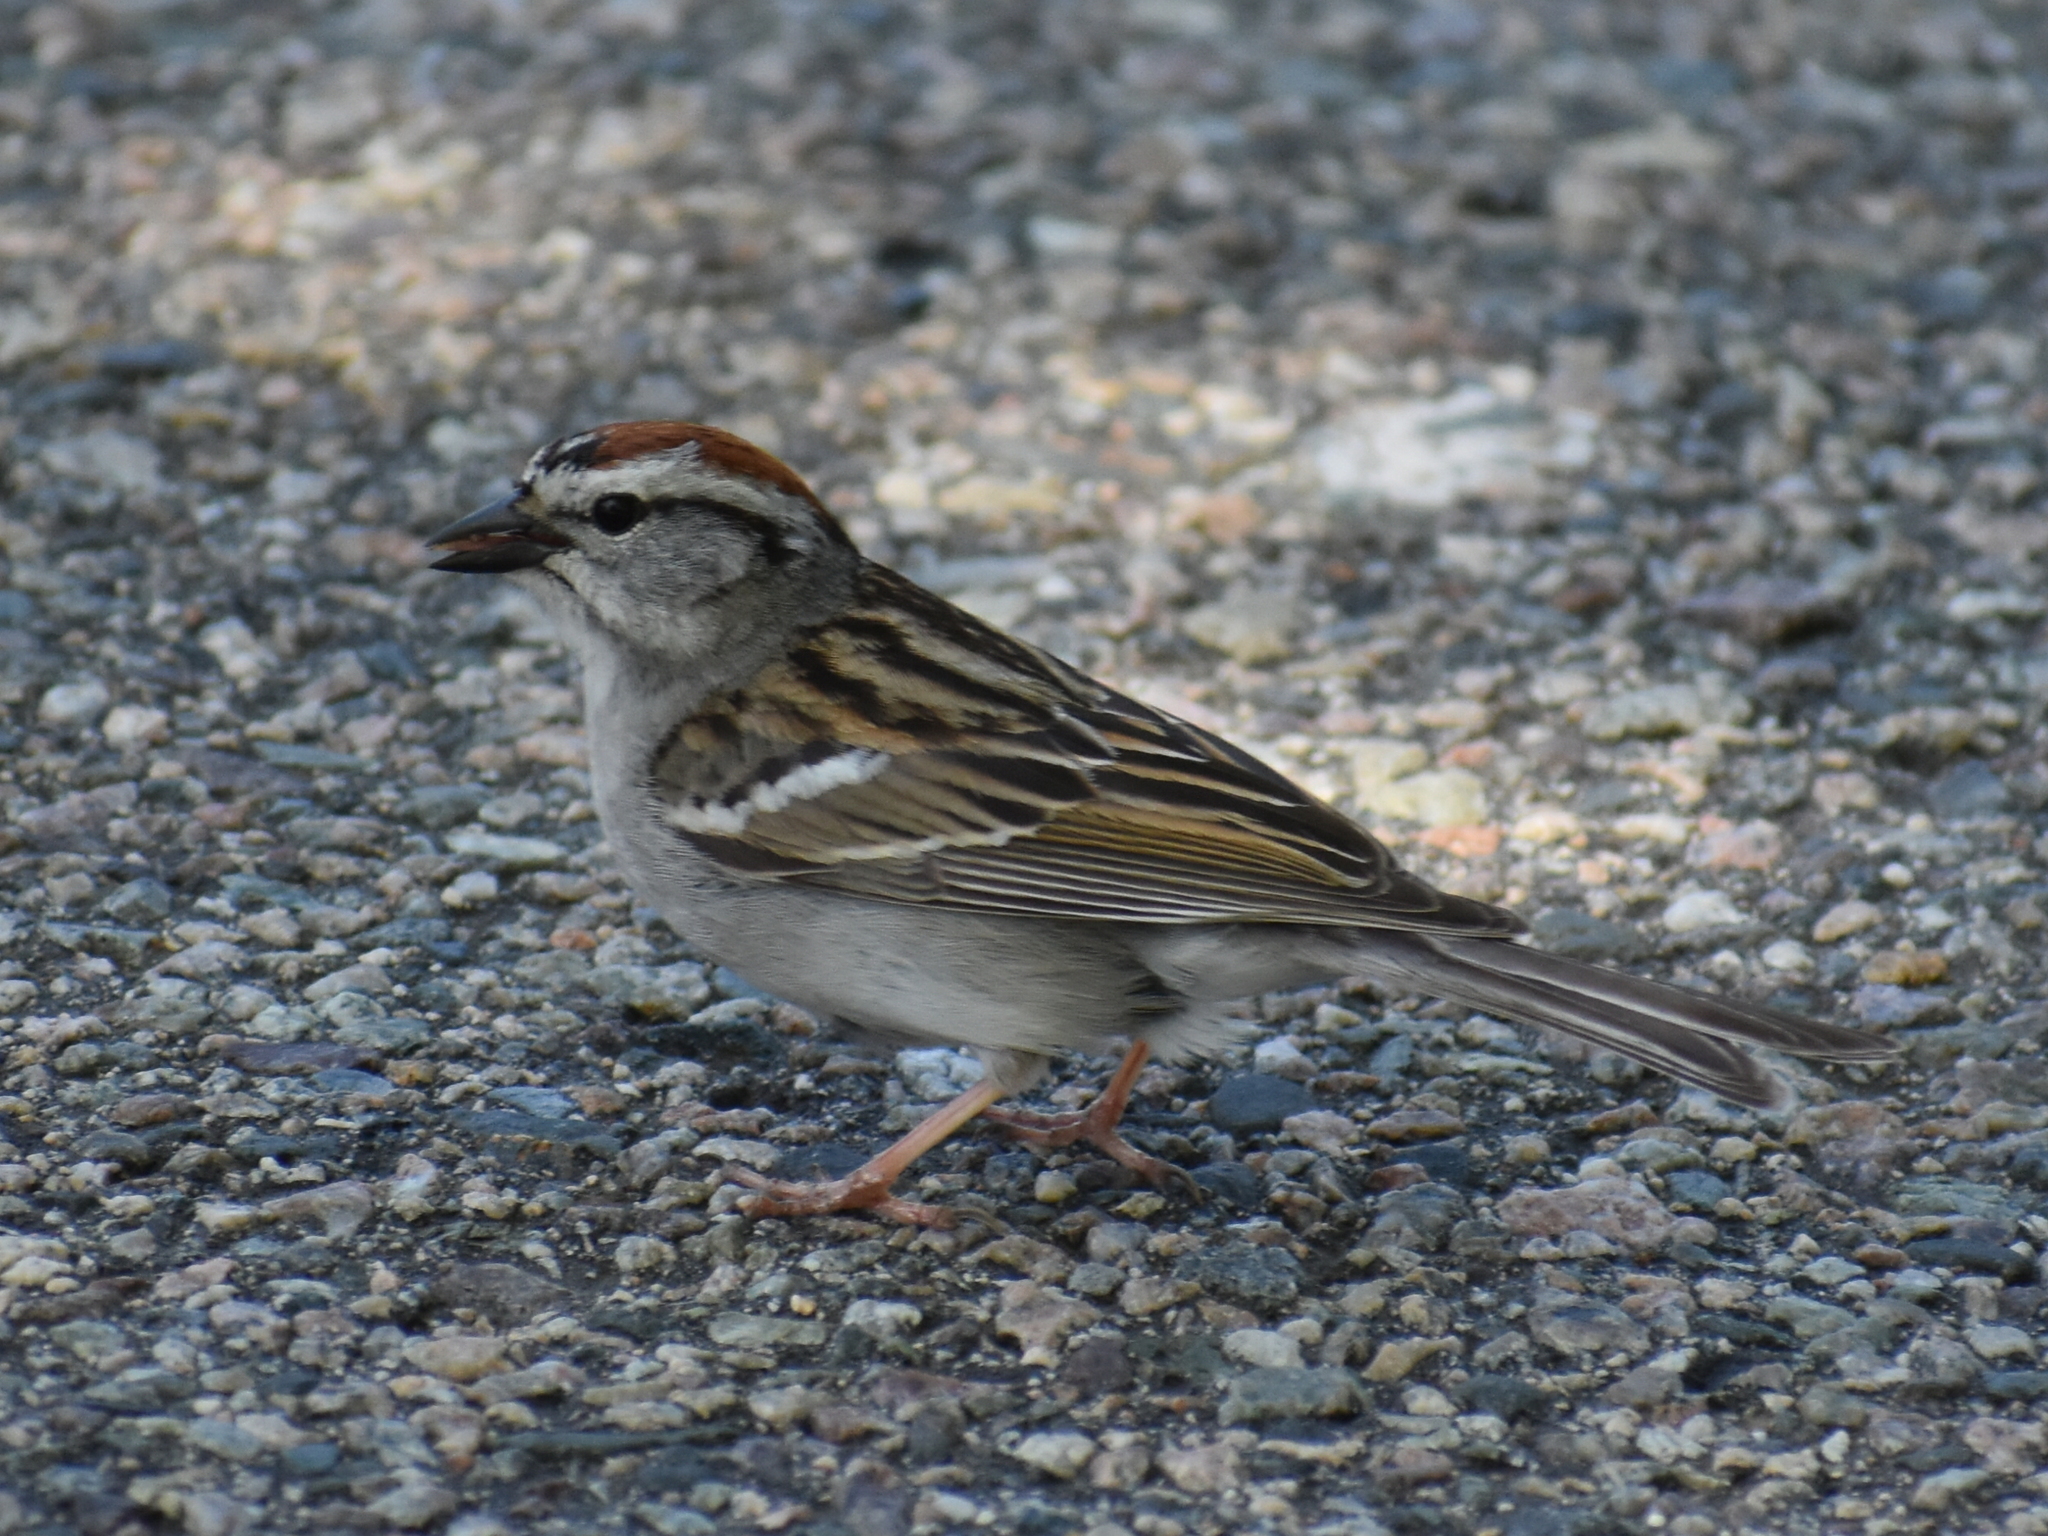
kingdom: Animalia
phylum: Chordata
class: Aves
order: Passeriformes
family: Passerellidae
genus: Spizella
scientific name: Spizella passerina
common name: Chipping sparrow
